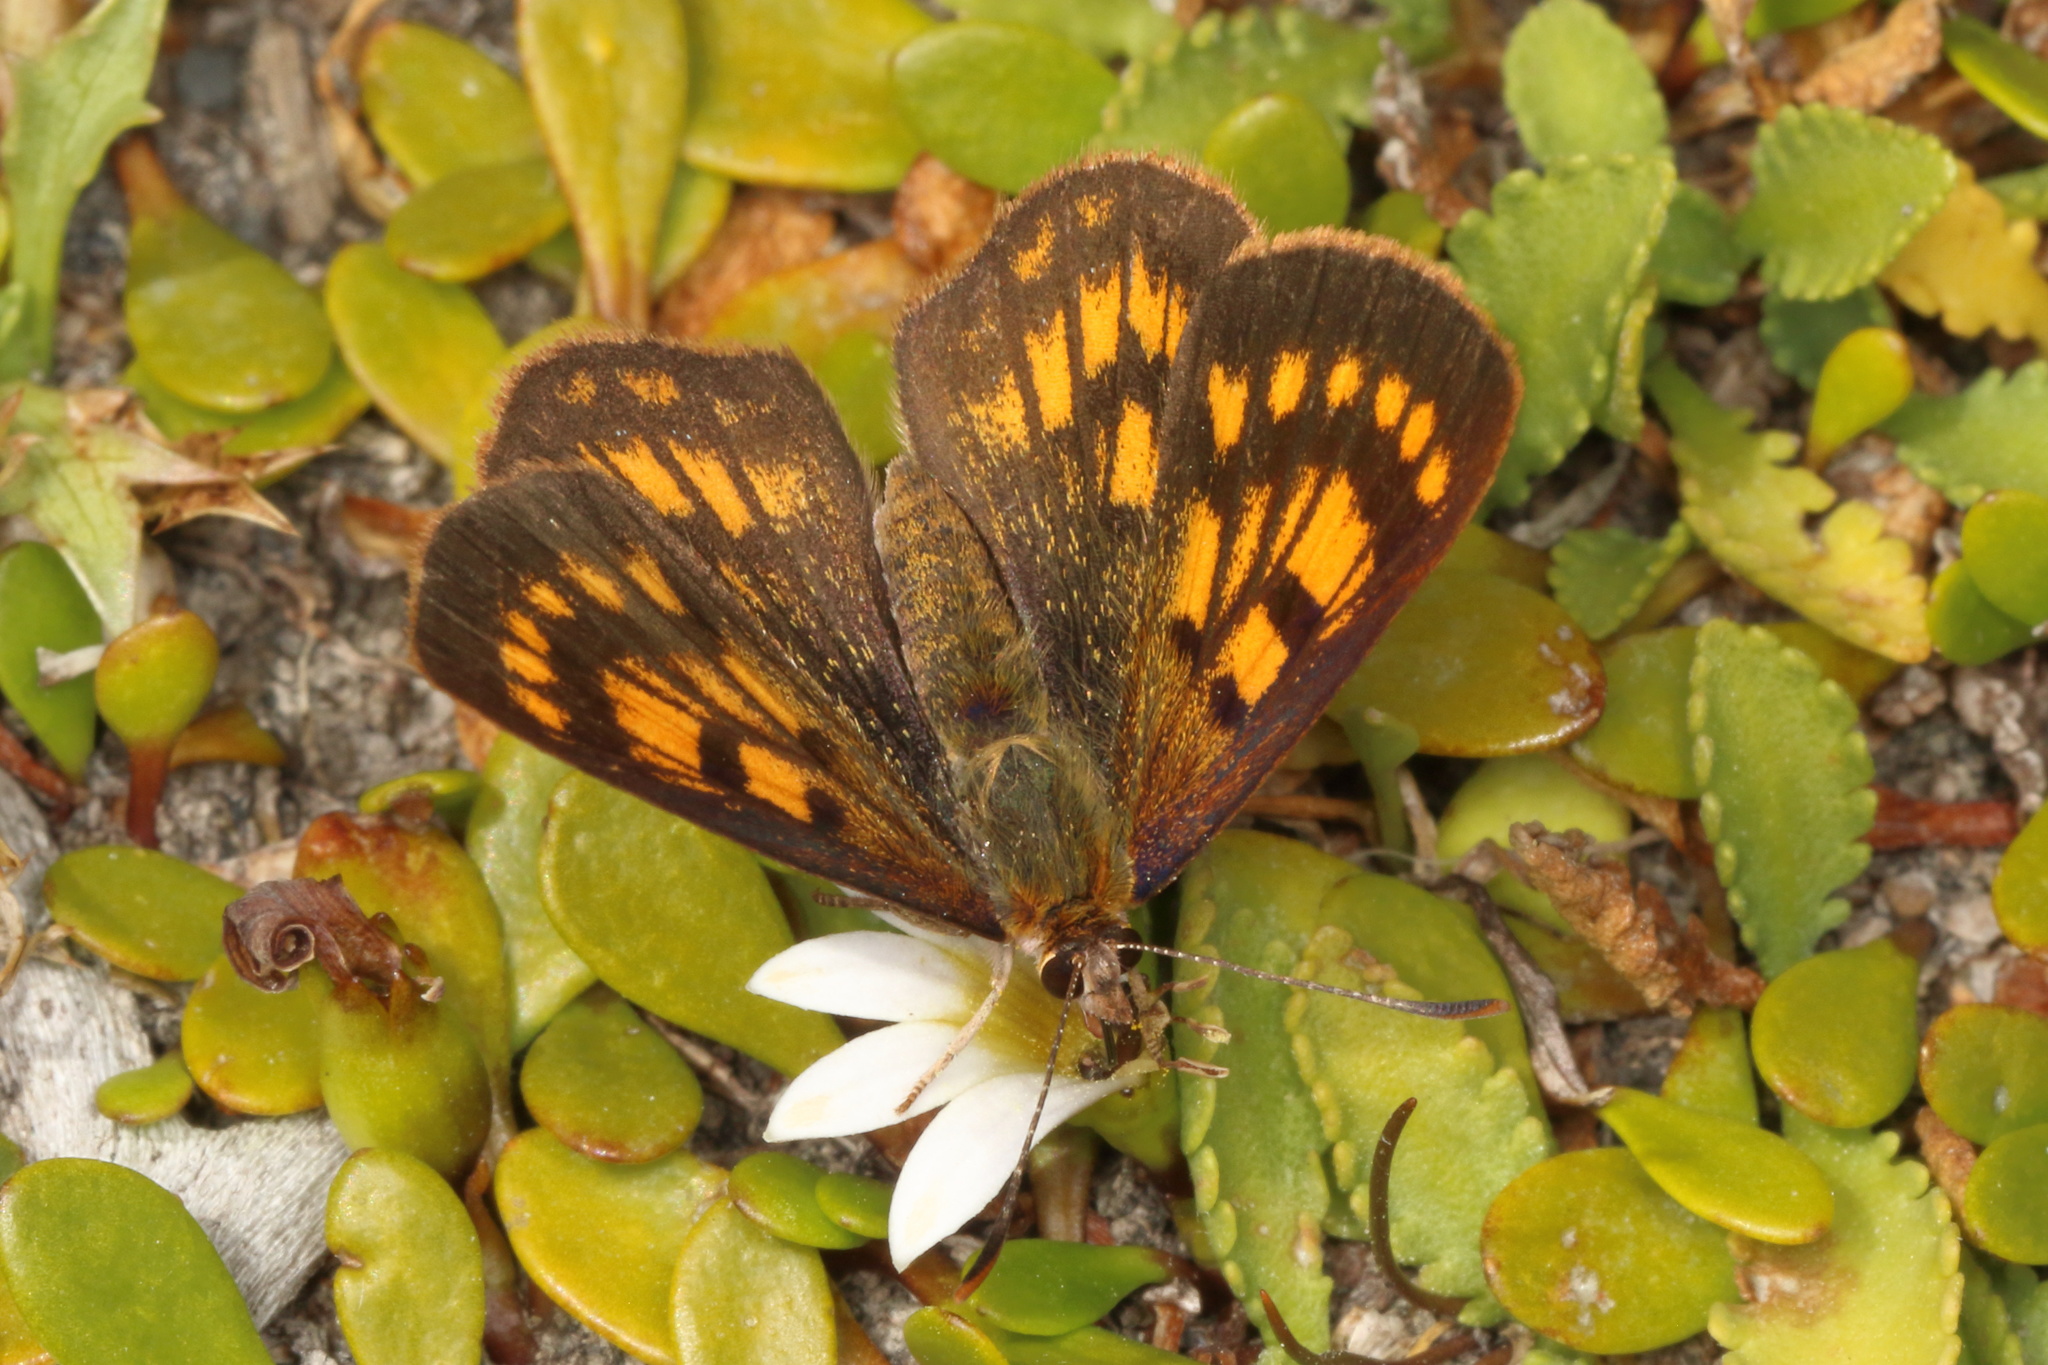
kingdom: Animalia
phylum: Arthropoda
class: Insecta
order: Lepidoptera
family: Lycaenidae
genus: Lycaena
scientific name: Lycaena feredayi
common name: Glade copper
